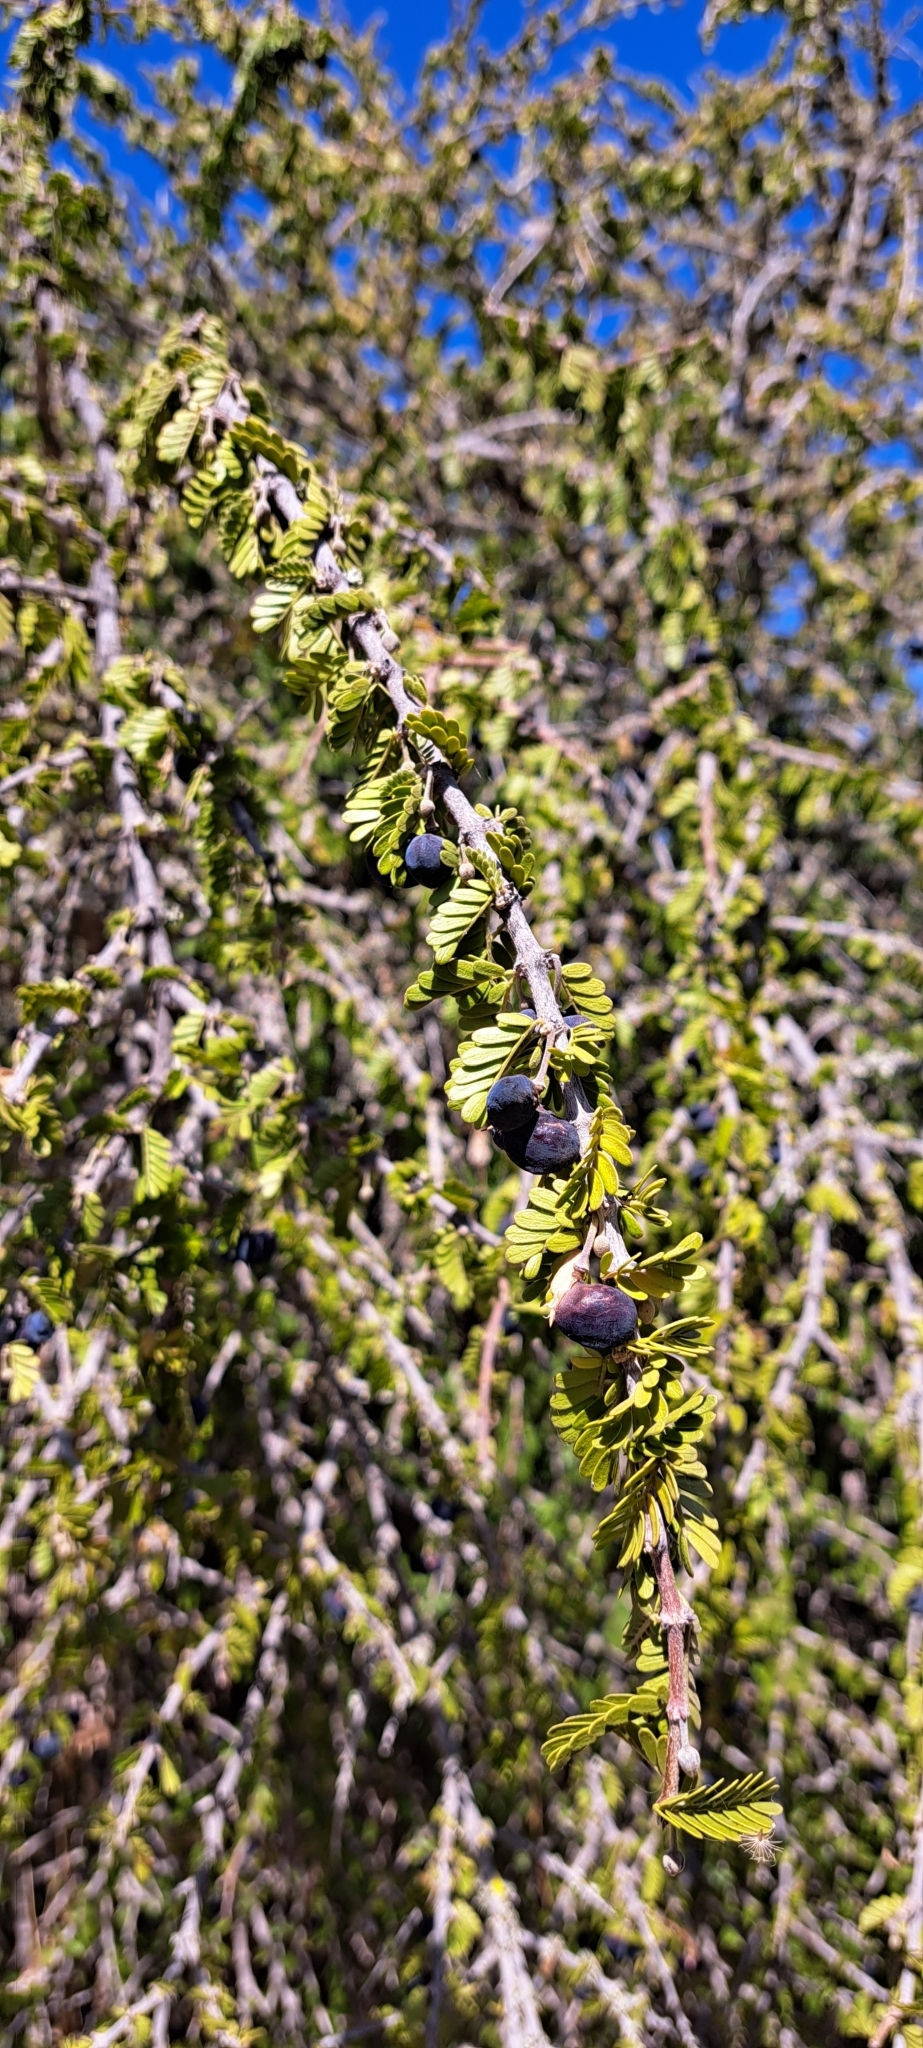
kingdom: Plantae
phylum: Tracheophyta
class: Magnoliopsida
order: Zygophyllales
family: Zygophyllaceae
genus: Porlieria
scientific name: Porlieria chilensis
